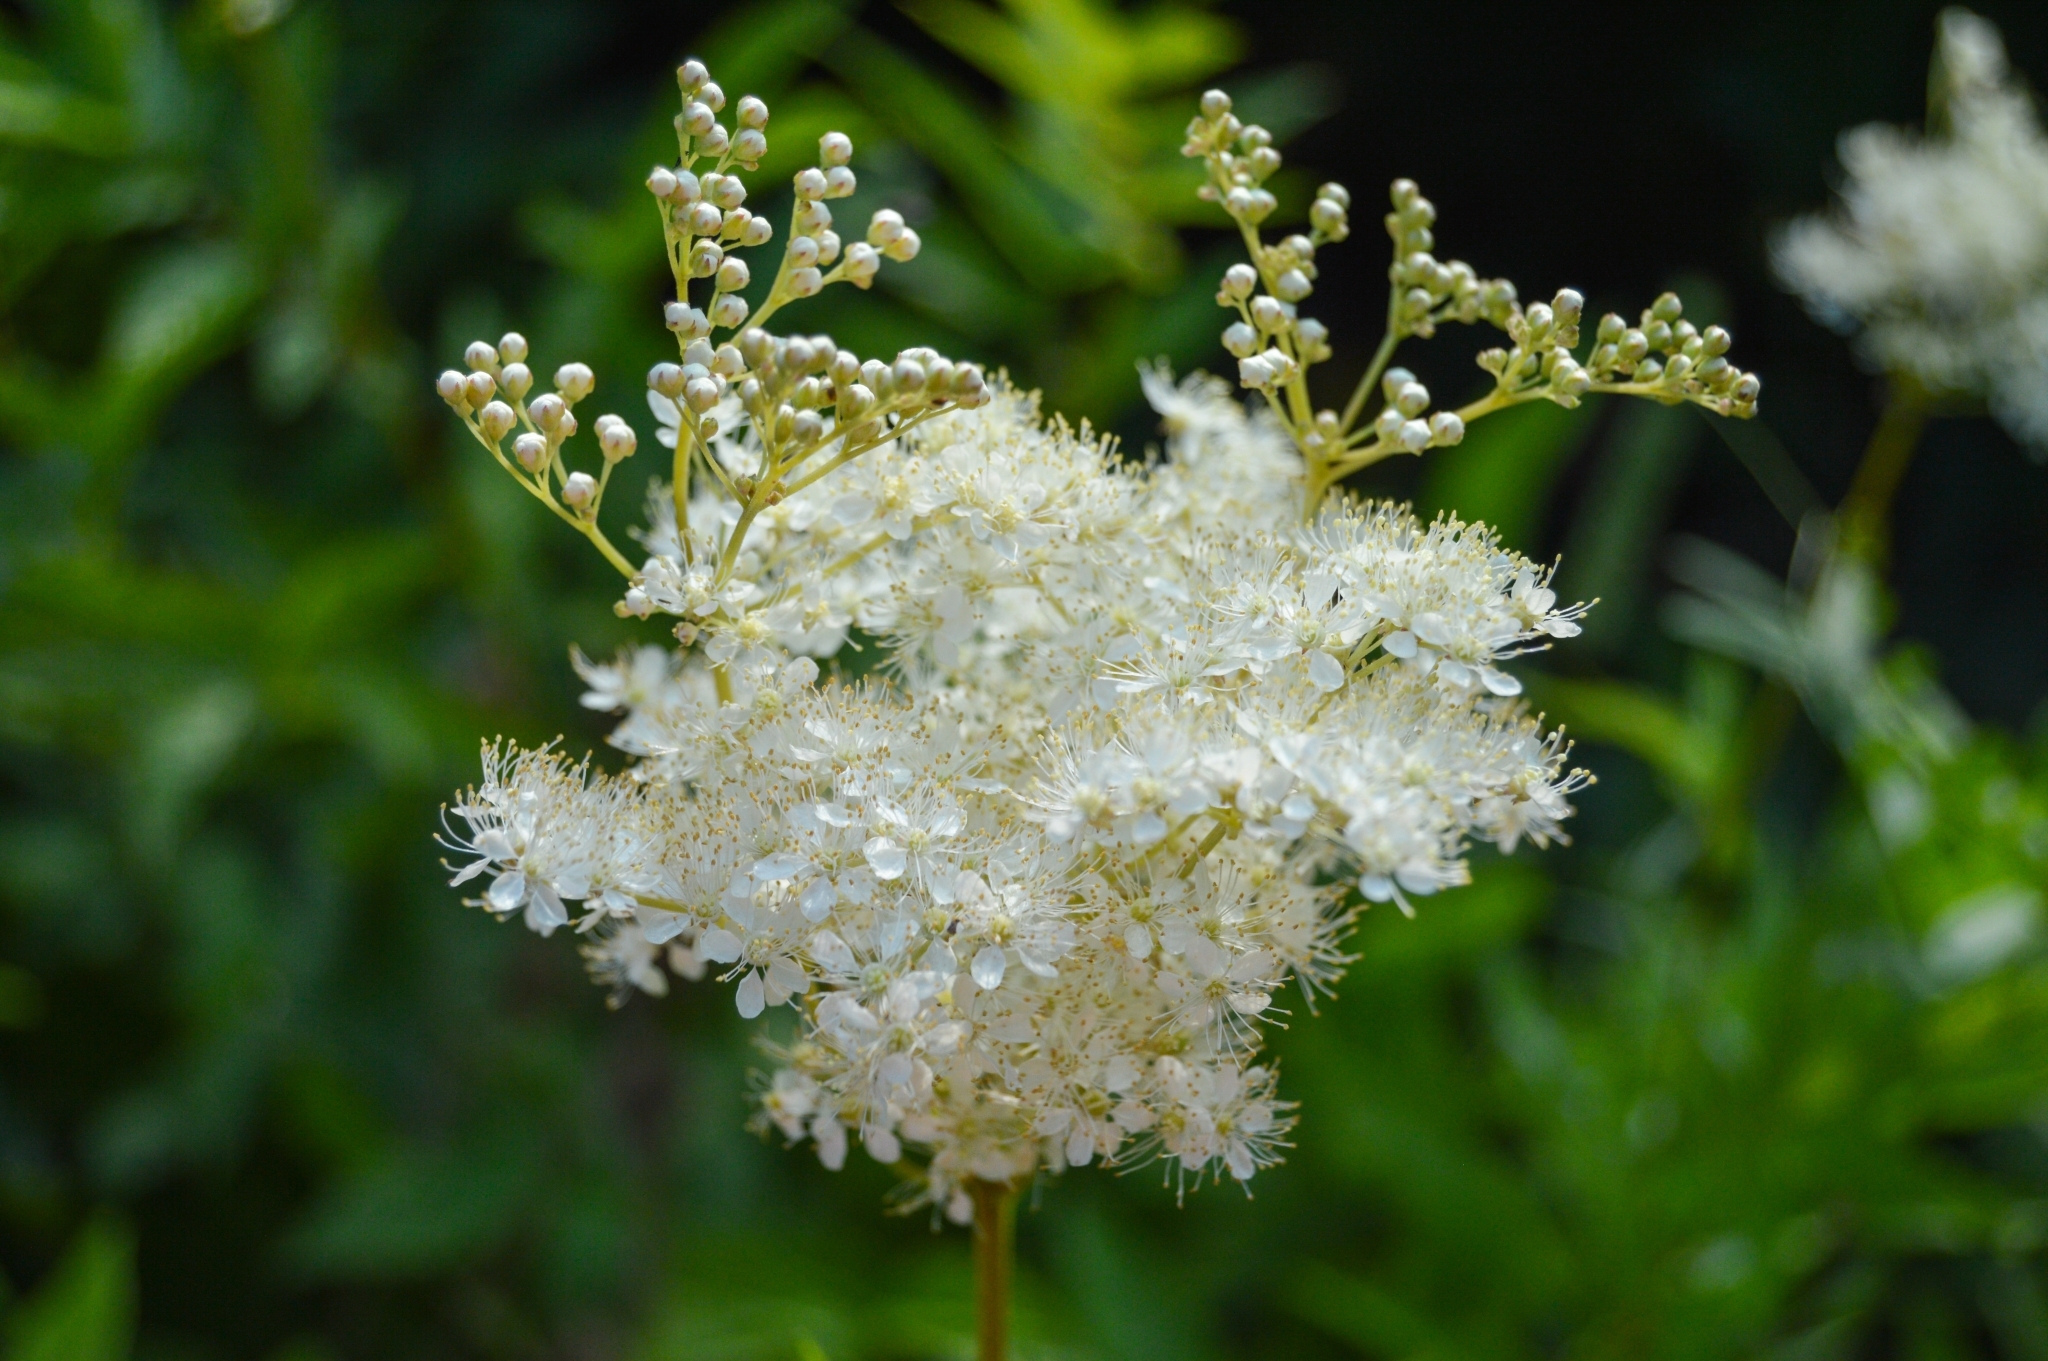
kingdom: Plantae
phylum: Tracheophyta
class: Magnoliopsida
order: Rosales
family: Rosaceae
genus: Filipendula
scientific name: Filipendula ulmaria
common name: Meadowsweet
